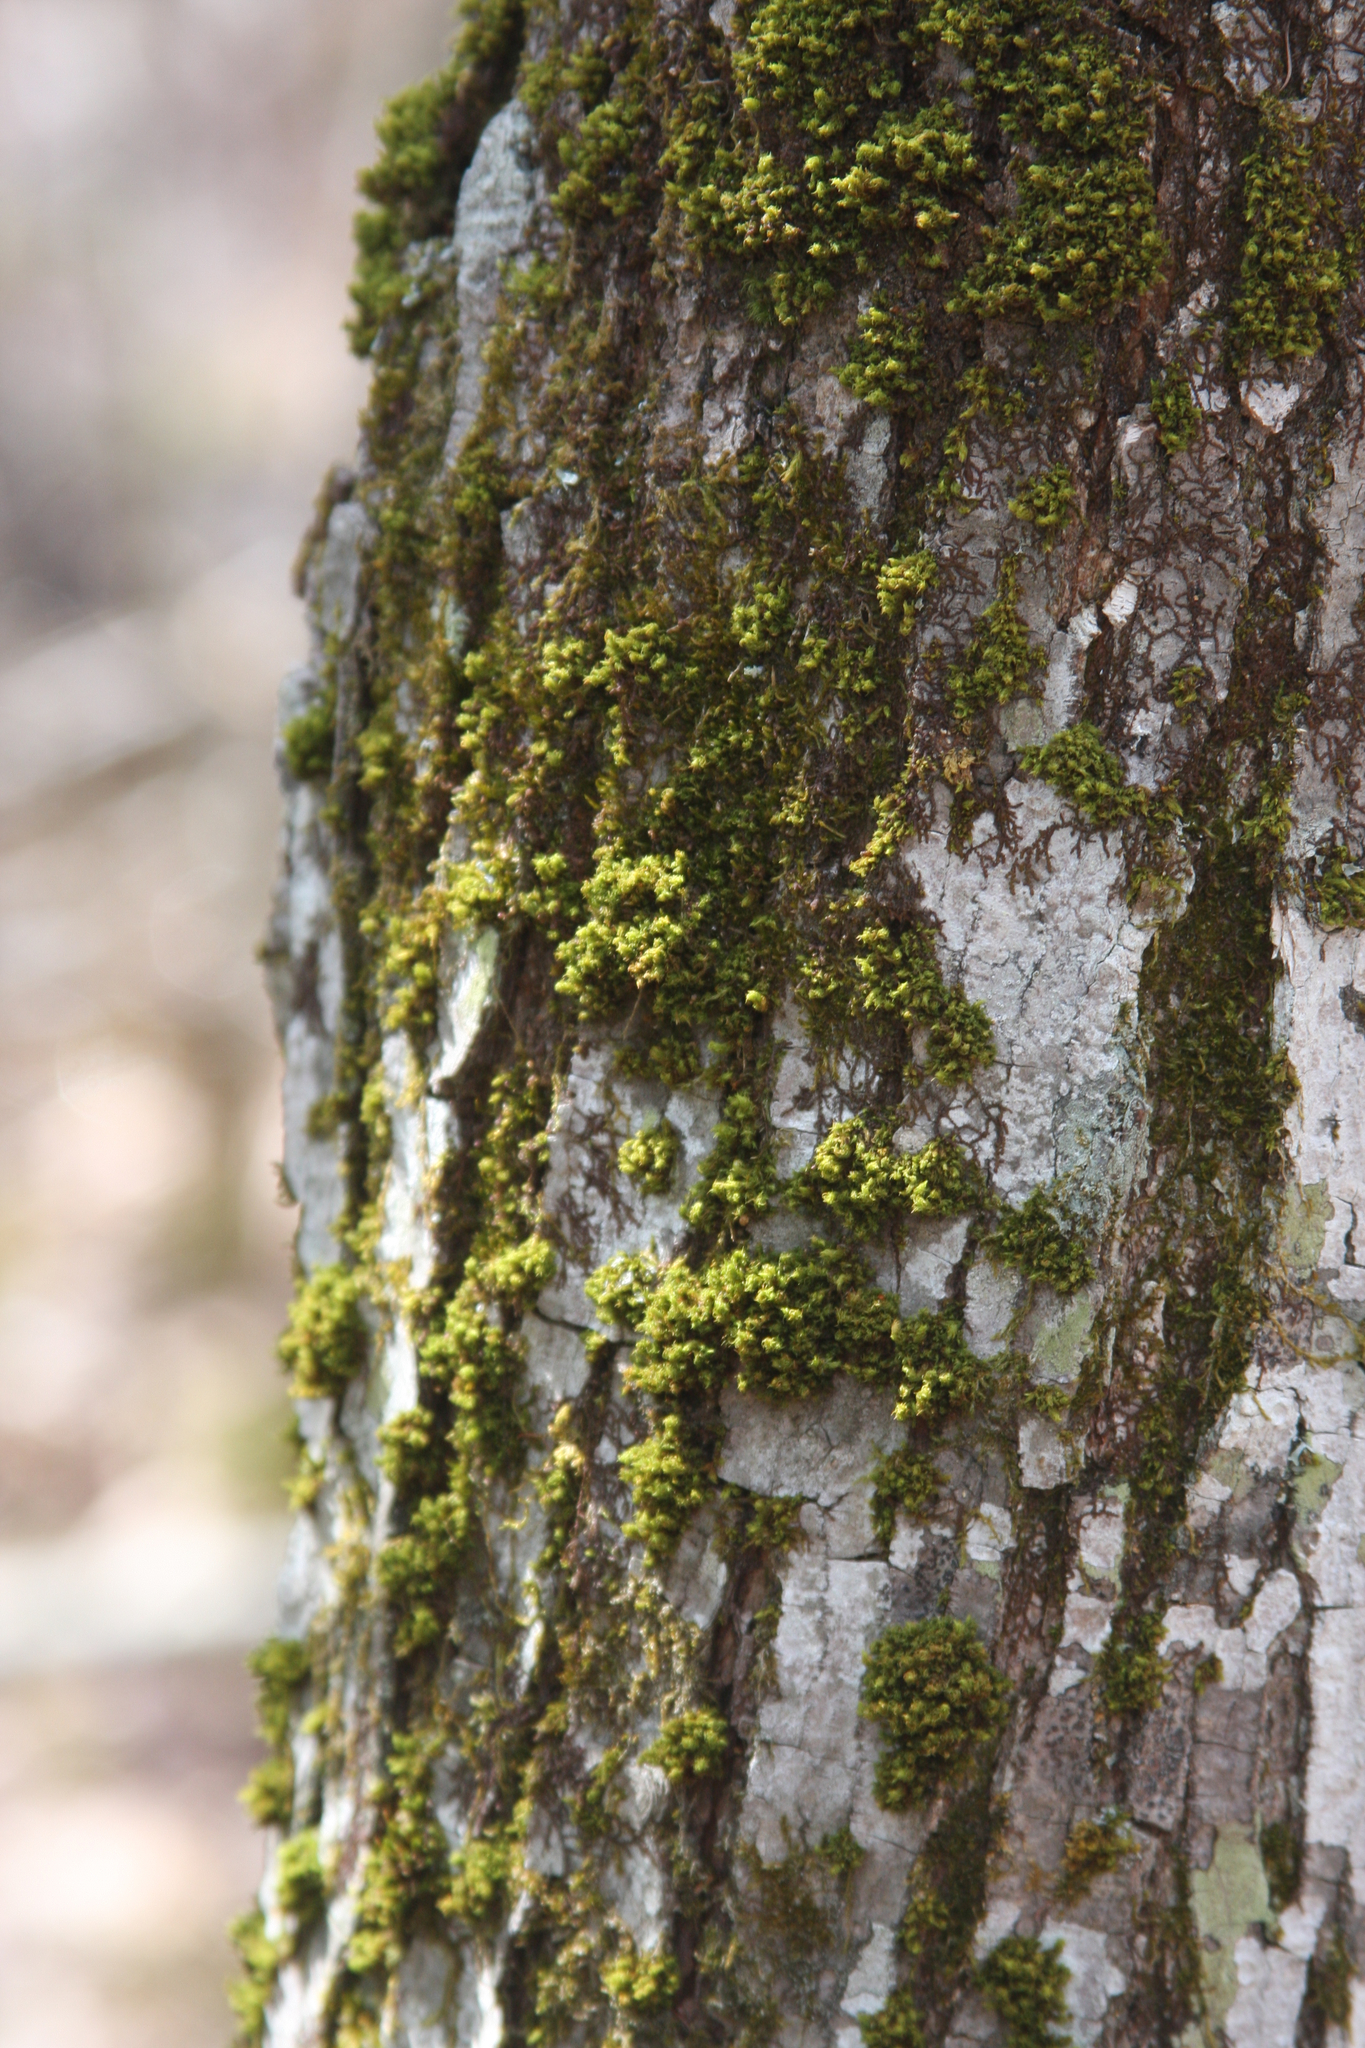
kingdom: Plantae
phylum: Bryophyta
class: Bryopsida
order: Orthotrichales
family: Orthotrichaceae
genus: Ulota
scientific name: Ulota crispa
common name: Crisped pincushion moss
